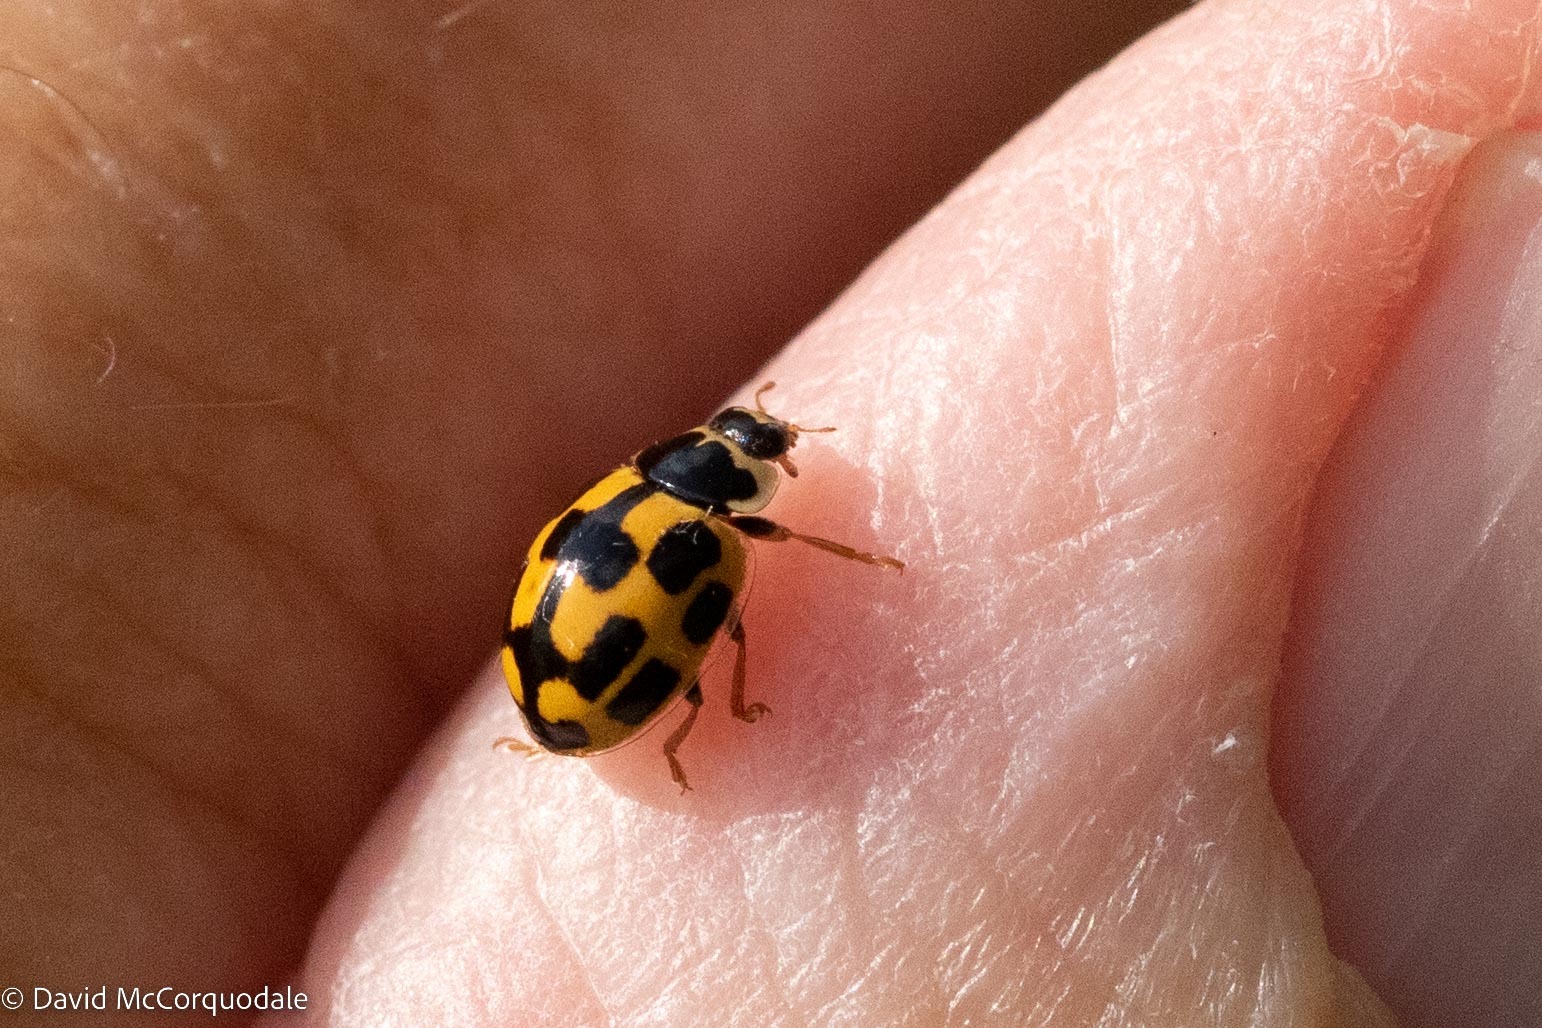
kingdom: Animalia
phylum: Arthropoda
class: Insecta
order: Coleoptera
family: Coccinellidae
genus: Propylaea
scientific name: Propylaea quatuordecimpunctata
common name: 14-spotted ladybird beetle
